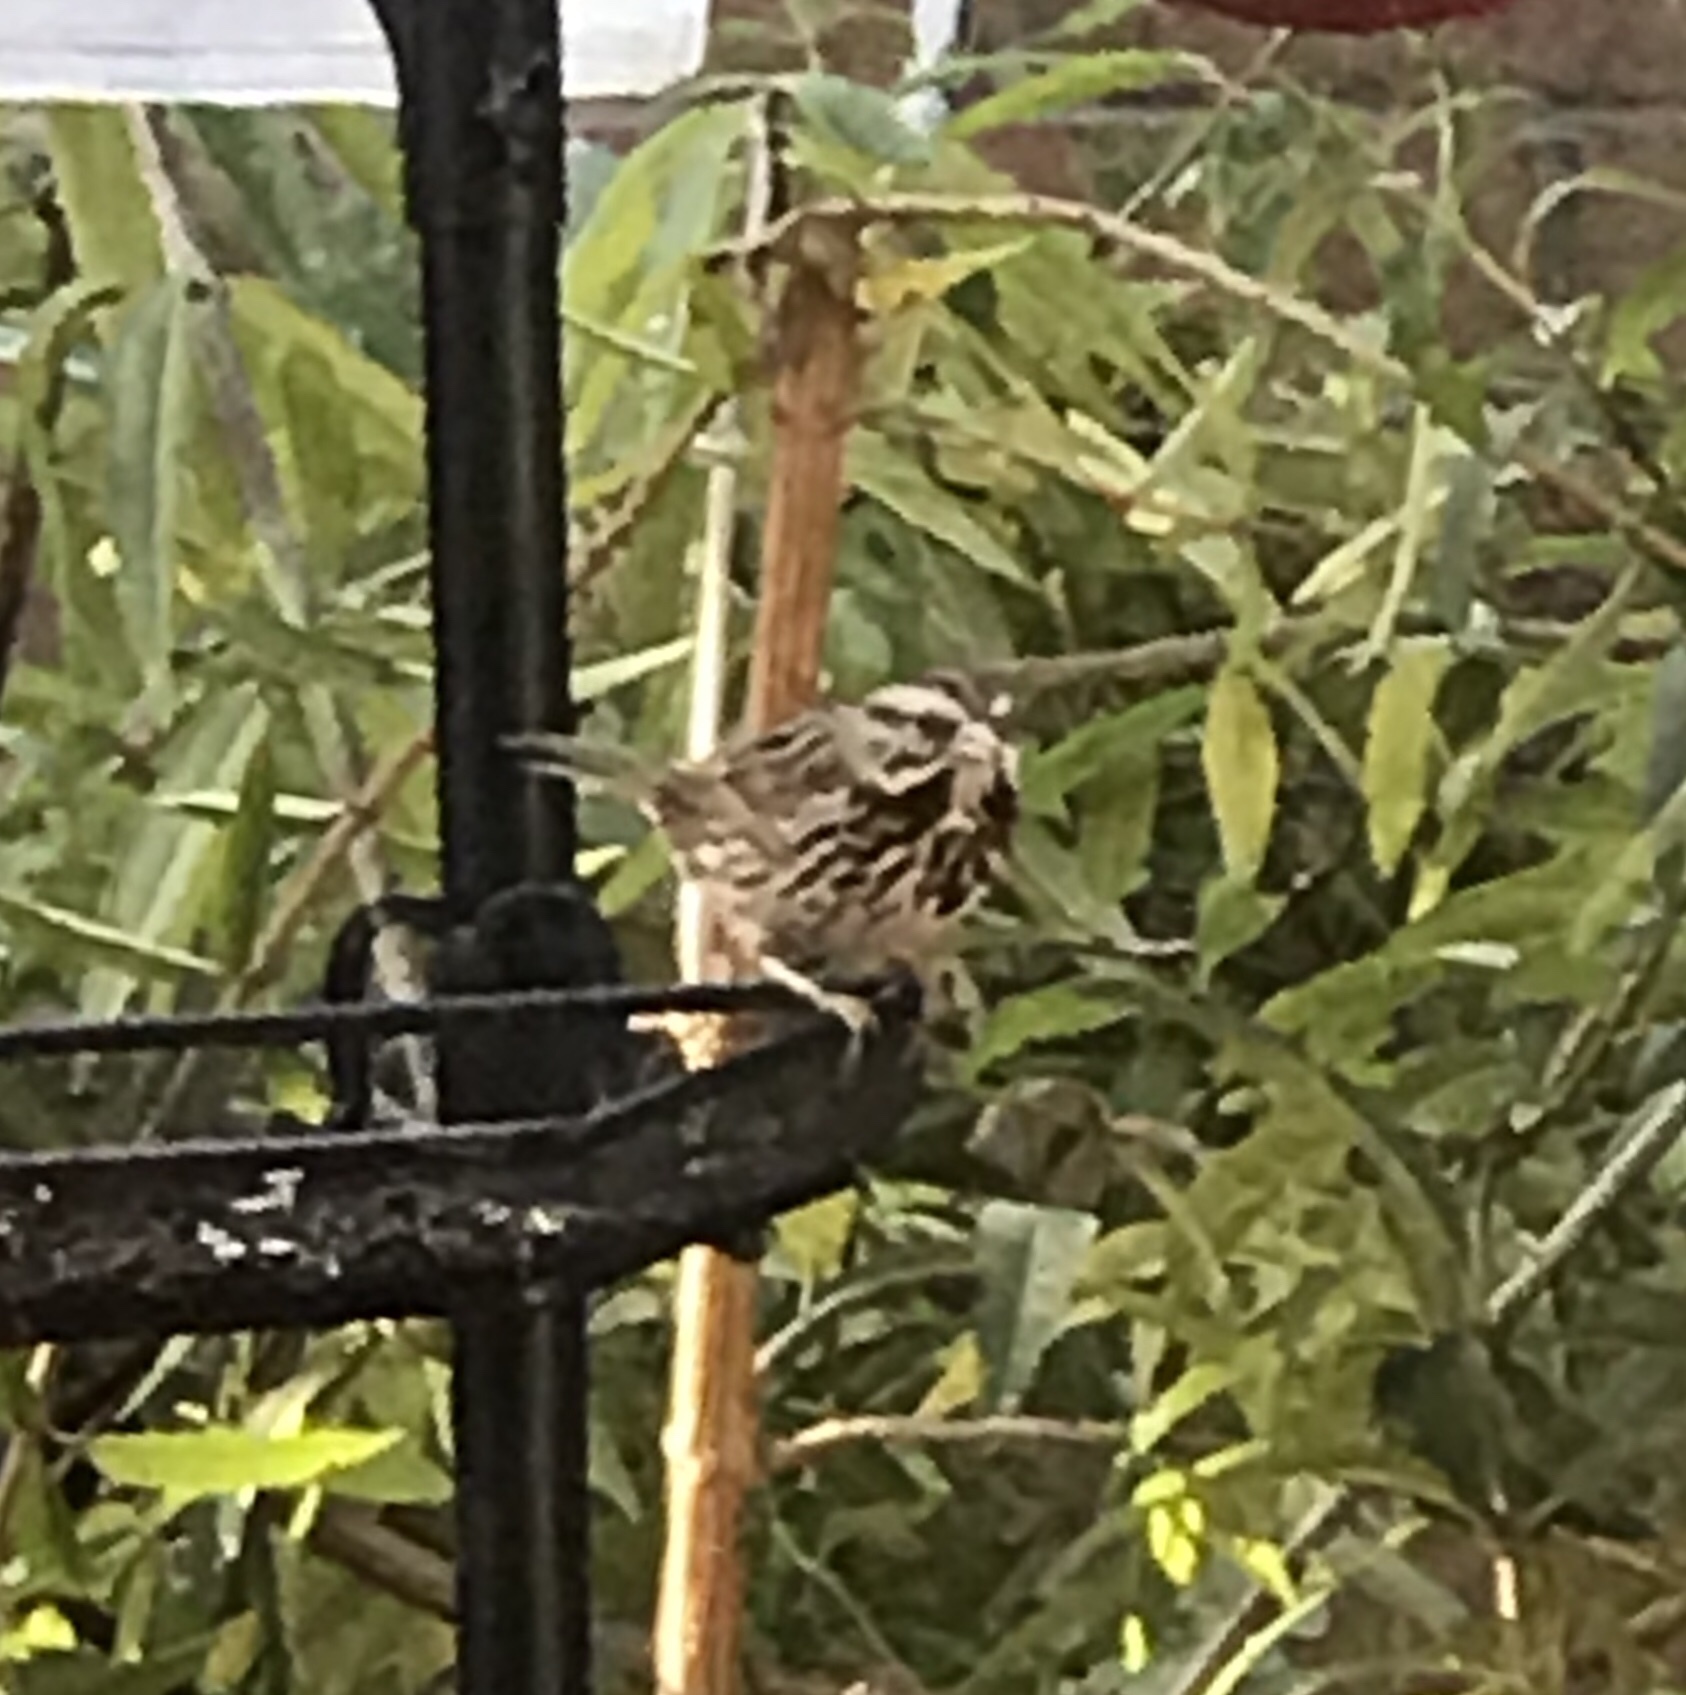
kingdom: Animalia
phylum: Chordata
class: Aves
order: Passeriformes
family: Passerellidae
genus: Melospiza
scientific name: Melospiza melodia
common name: Song sparrow
